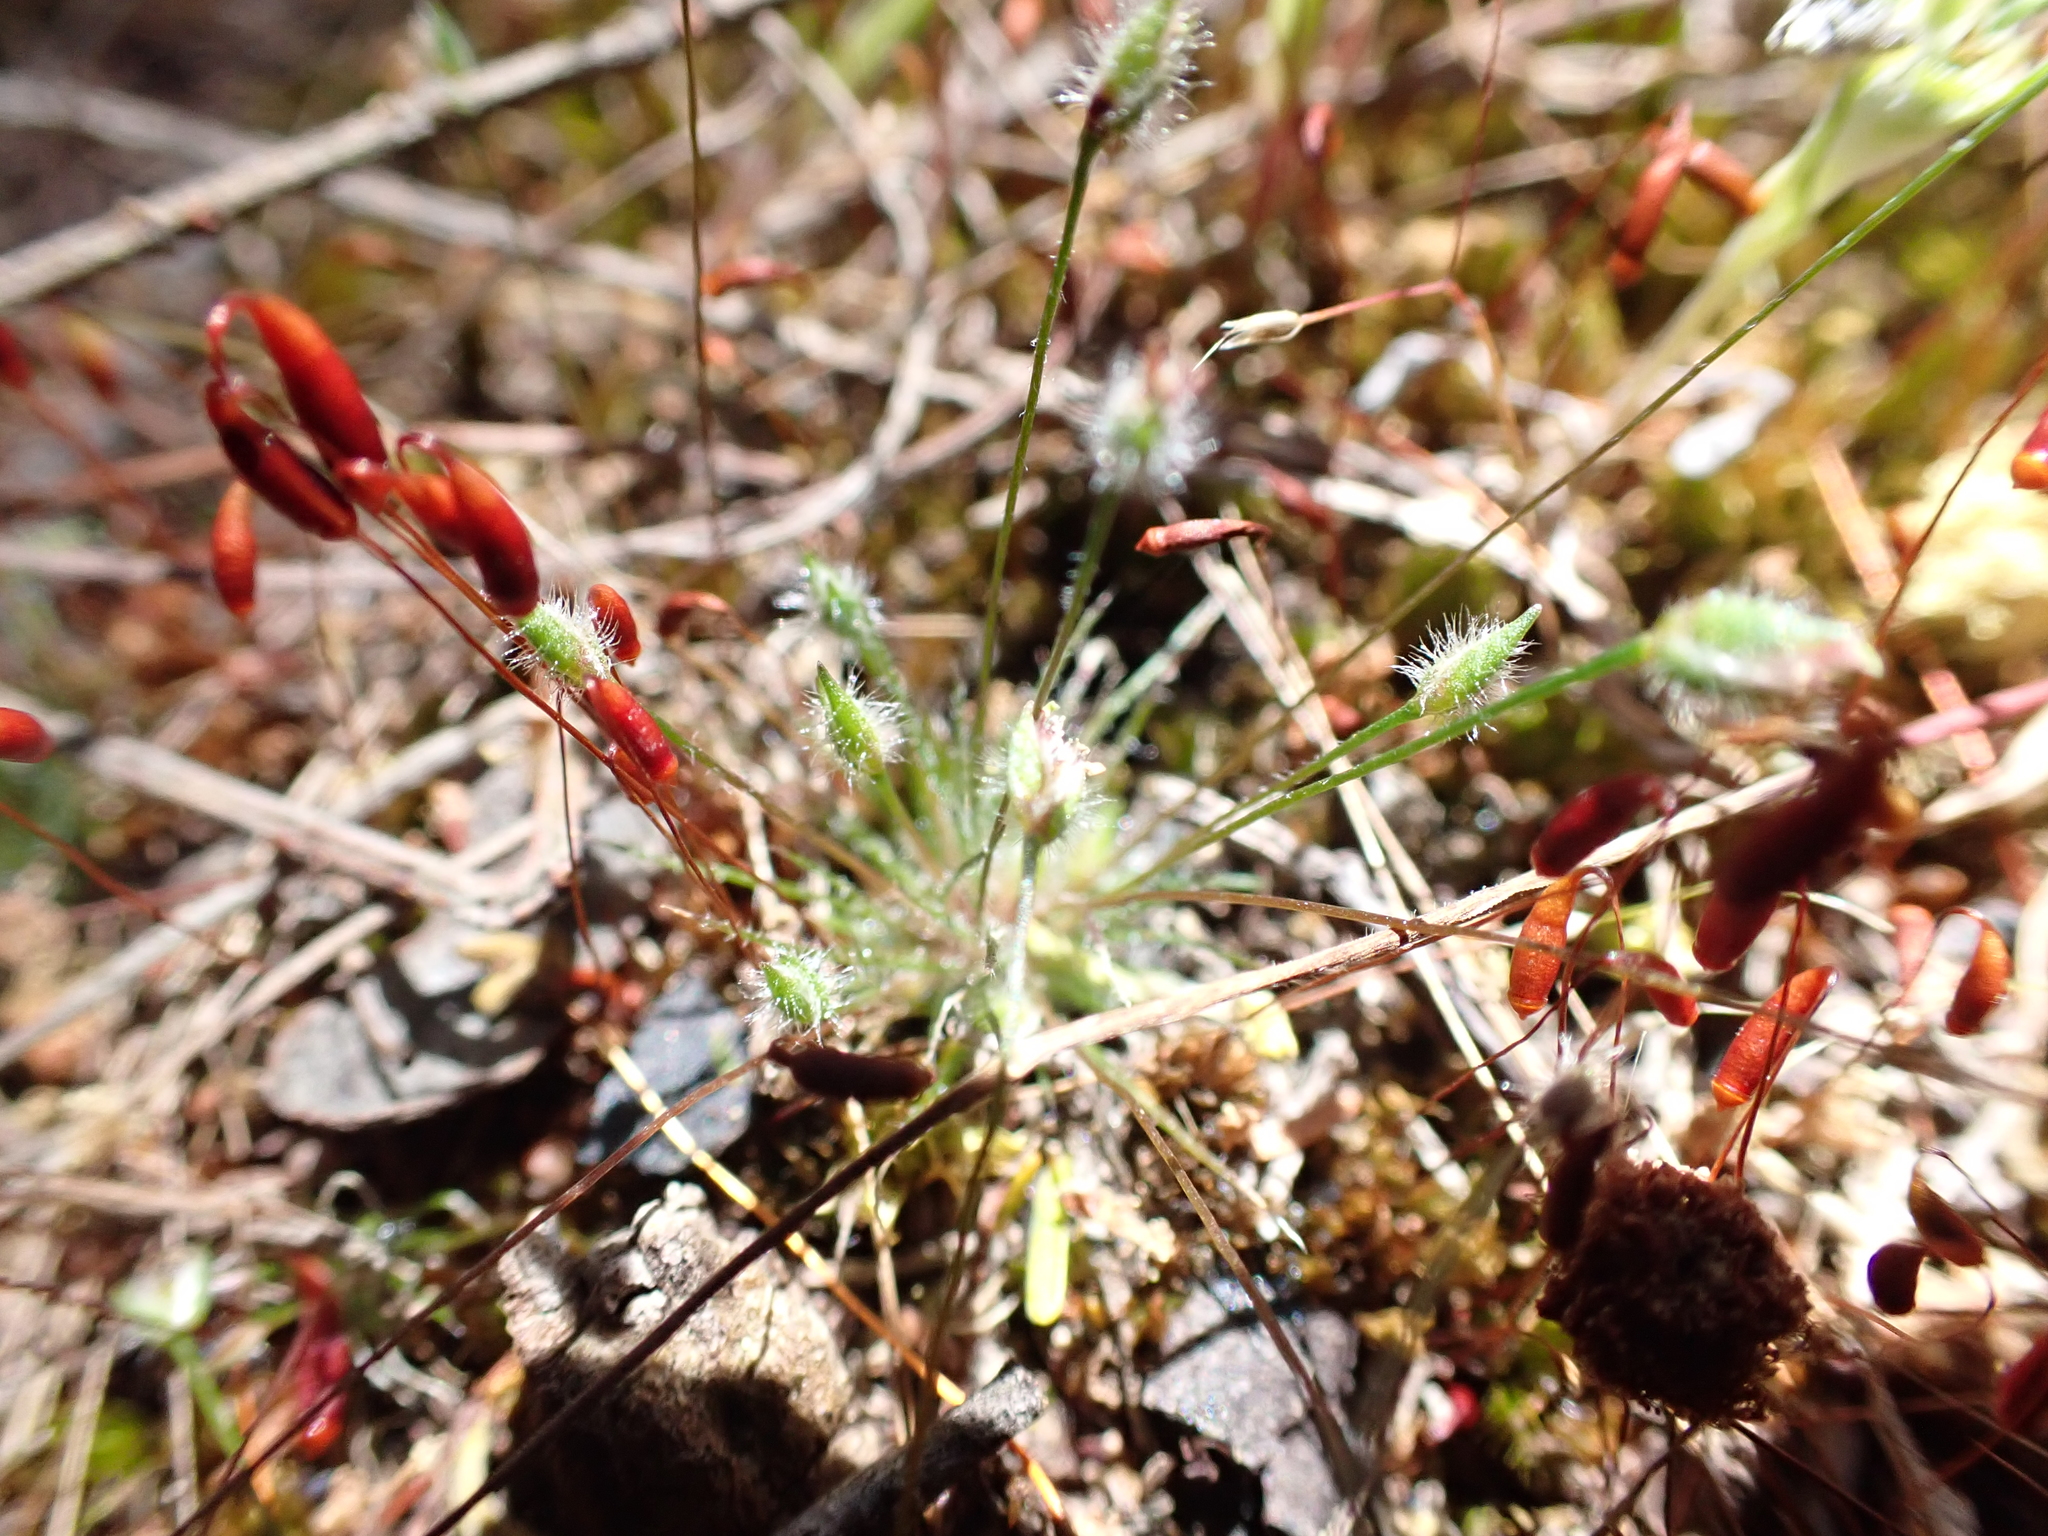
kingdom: Plantae
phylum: Tracheophyta
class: Liliopsida
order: Poales
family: Restionaceae
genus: Centrolepis
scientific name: Centrolepis strigosa
